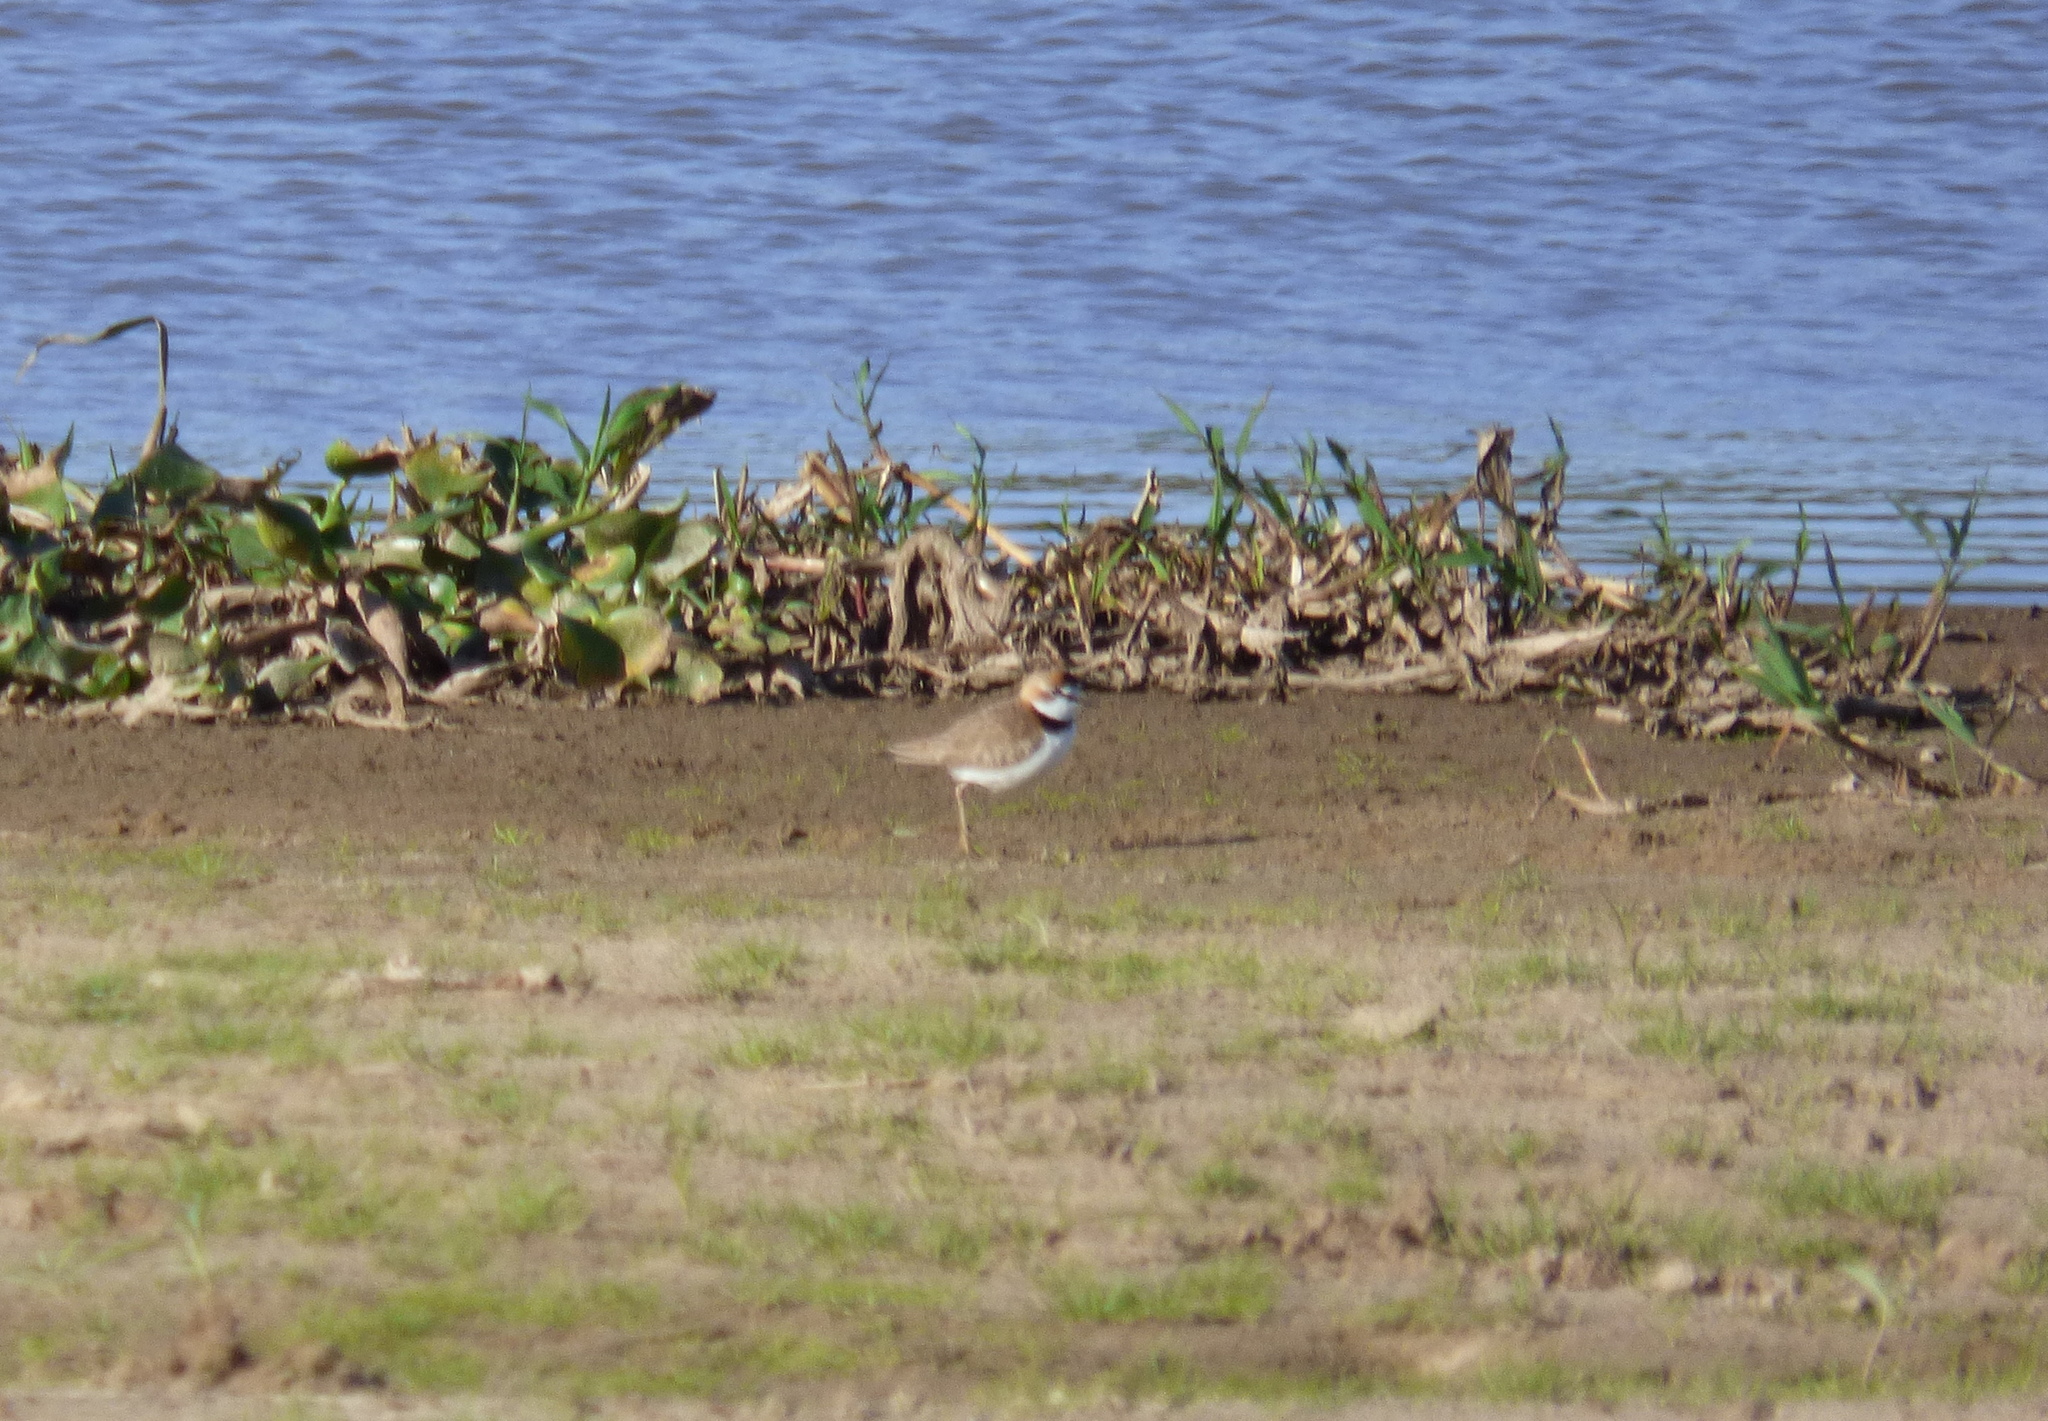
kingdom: Animalia
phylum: Chordata
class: Aves
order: Charadriiformes
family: Charadriidae
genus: Anarhynchus
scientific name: Anarhynchus
